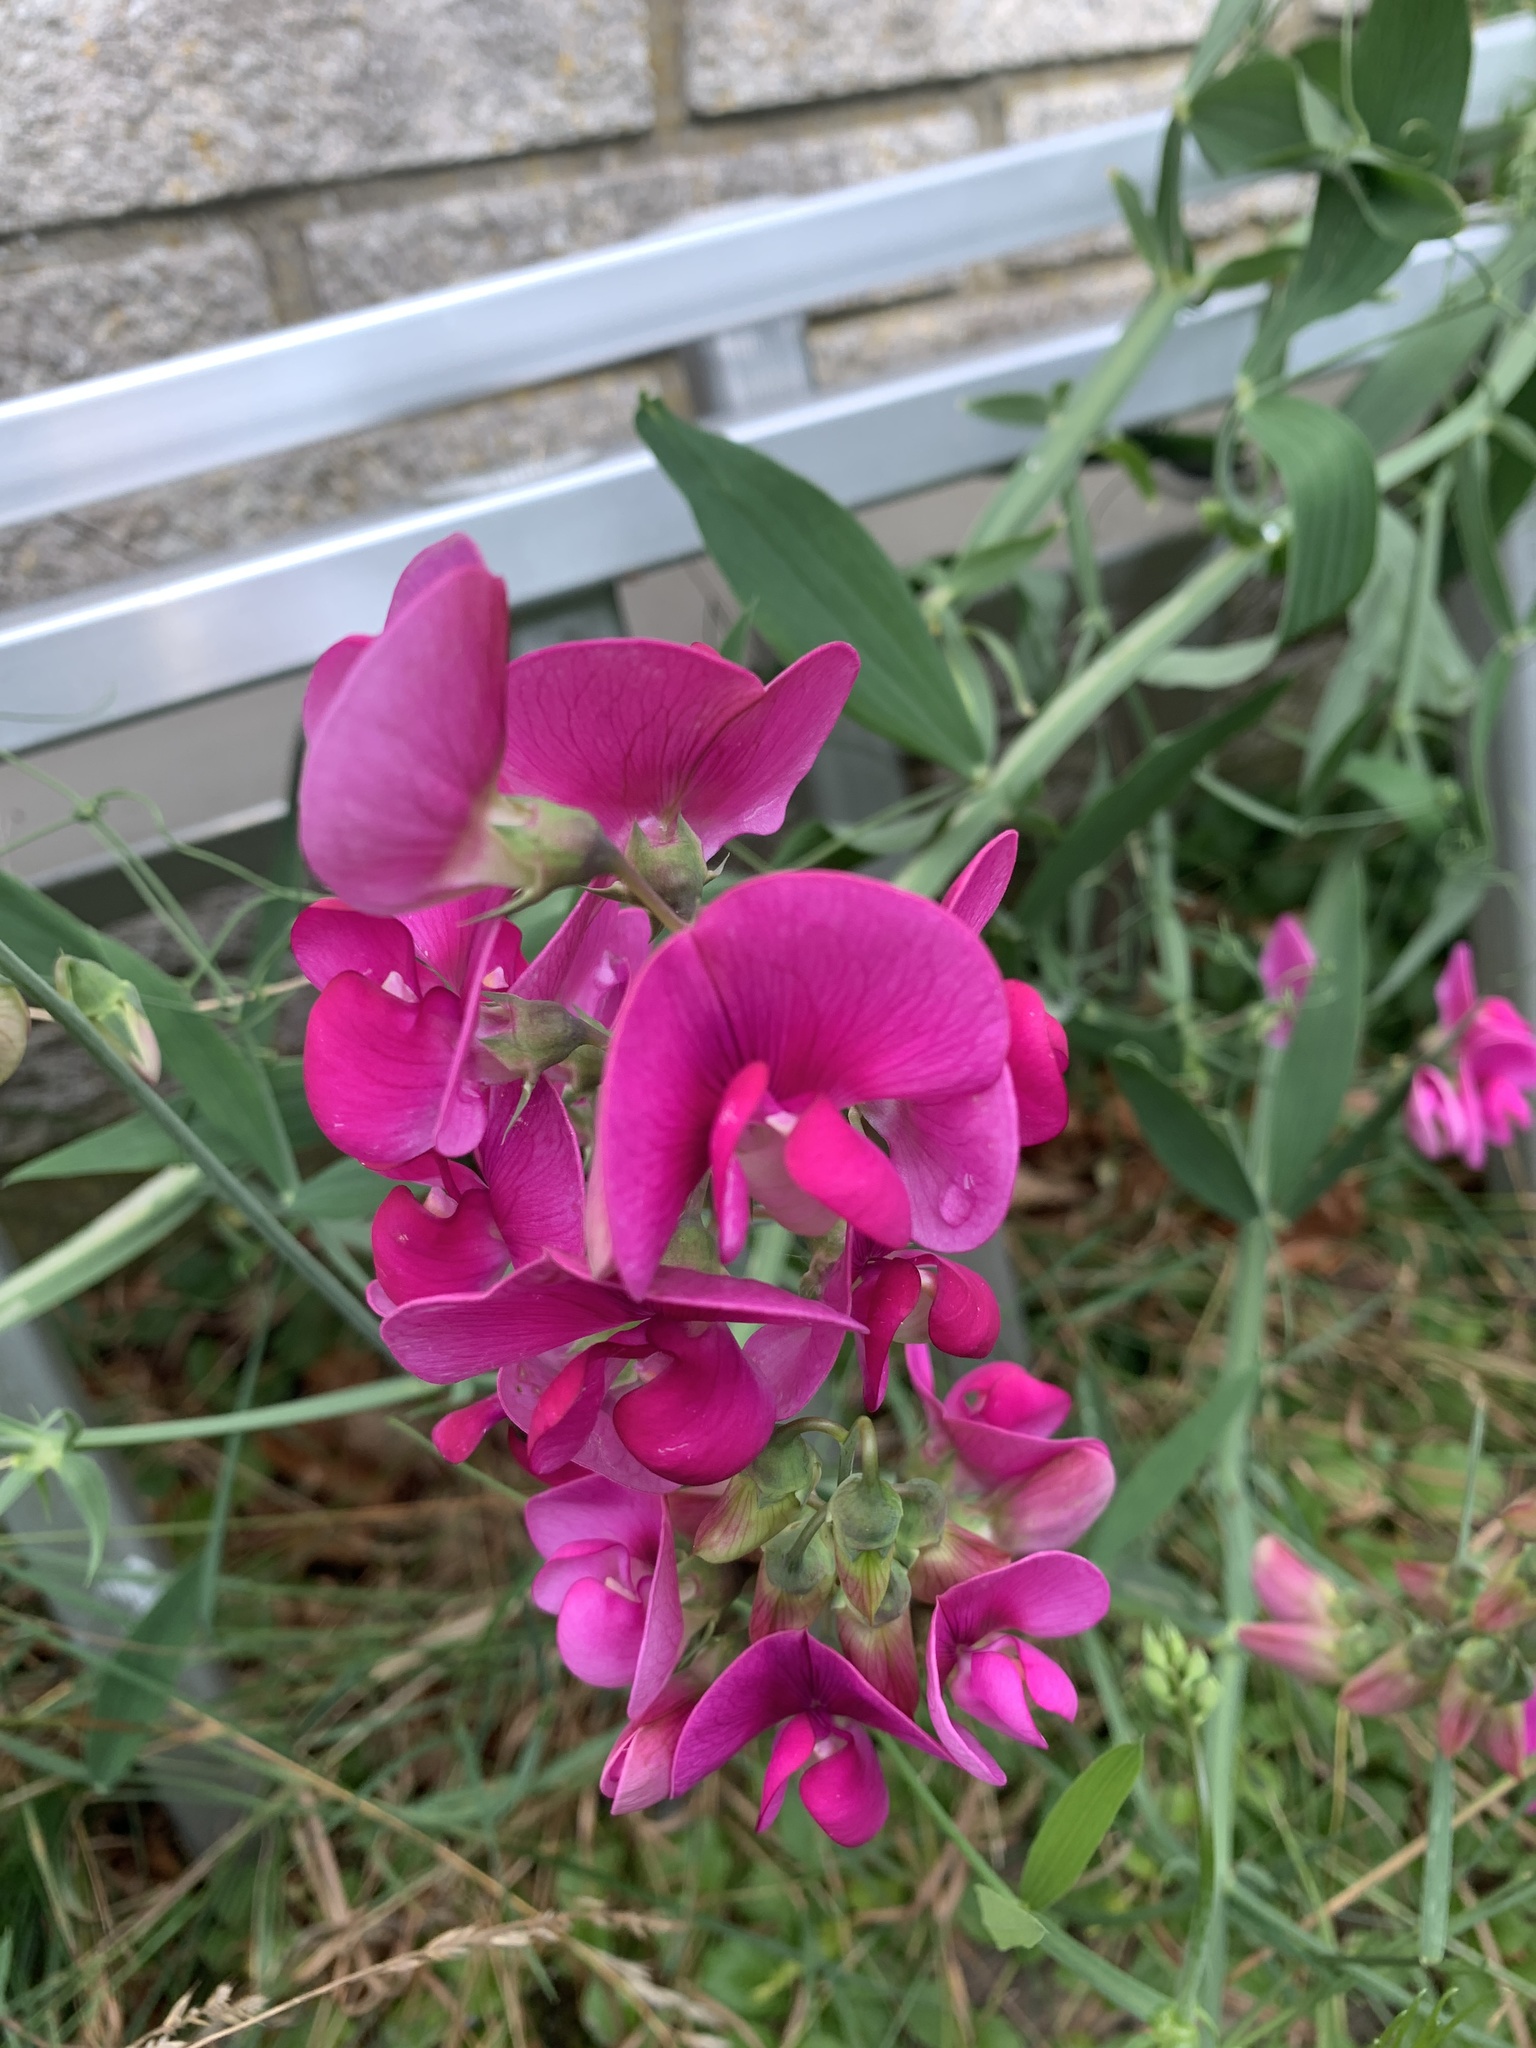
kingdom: Plantae
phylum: Tracheophyta
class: Magnoliopsida
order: Fabales
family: Fabaceae
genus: Lathyrus
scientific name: Lathyrus latifolius
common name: Perennial pea
